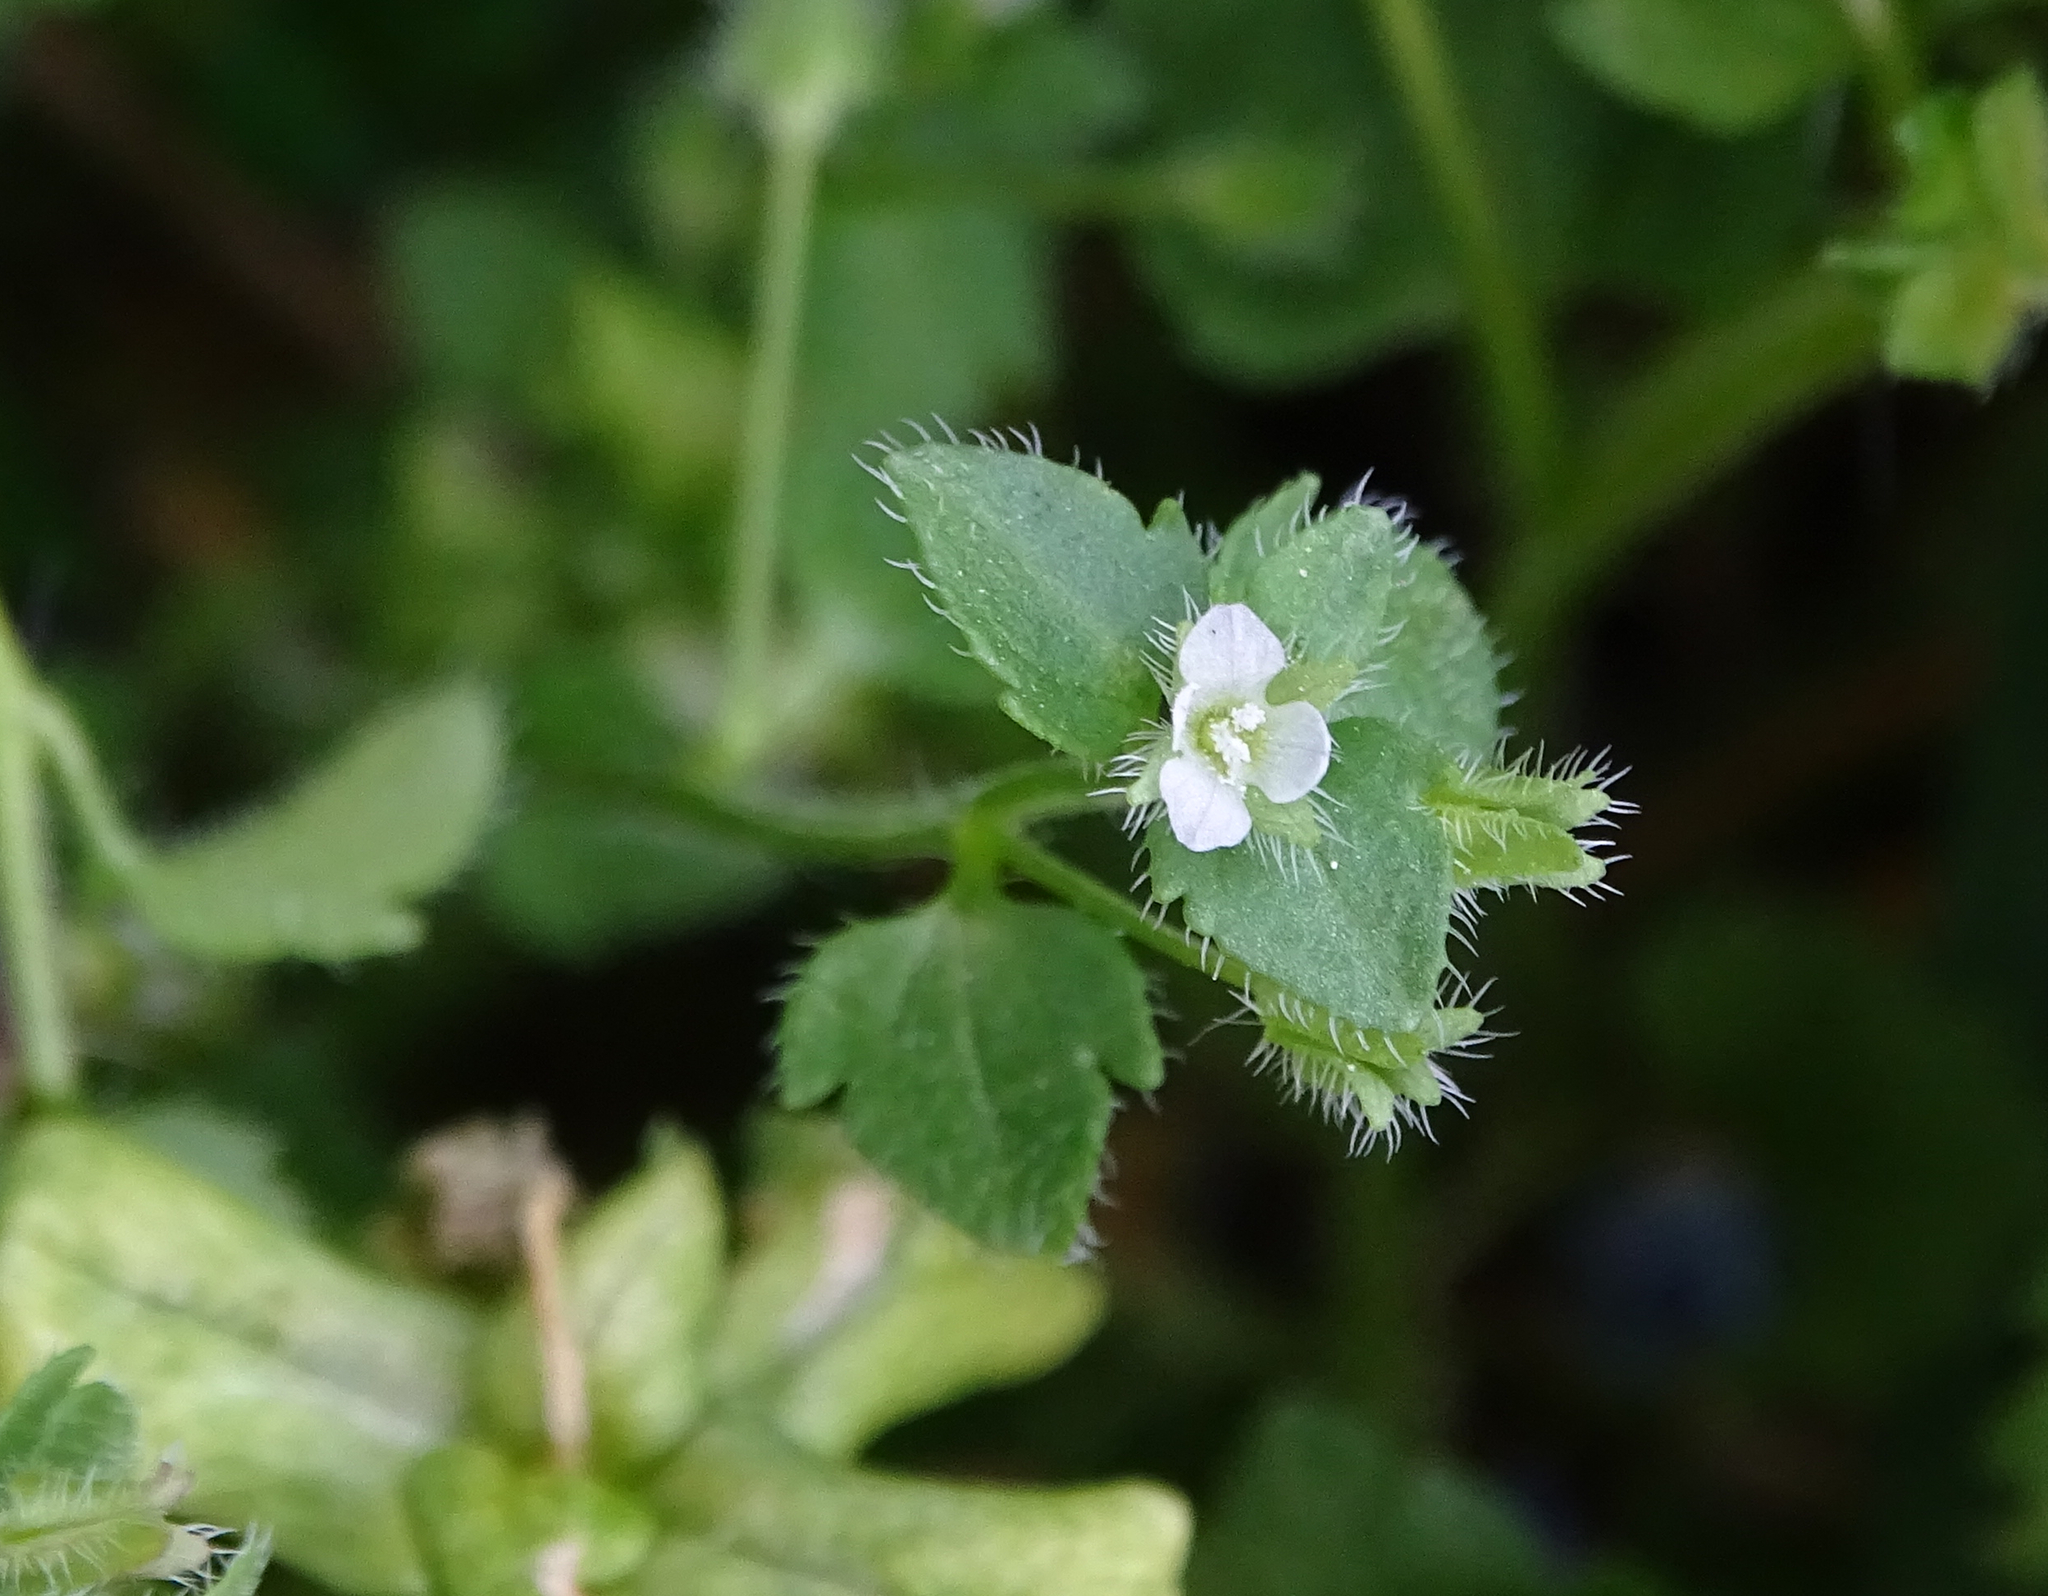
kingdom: Plantae
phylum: Tracheophyta
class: Magnoliopsida
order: Lamiales
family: Plantaginaceae
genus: Veronica
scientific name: Veronica sublobata
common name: False ivy-leaved speedwell
